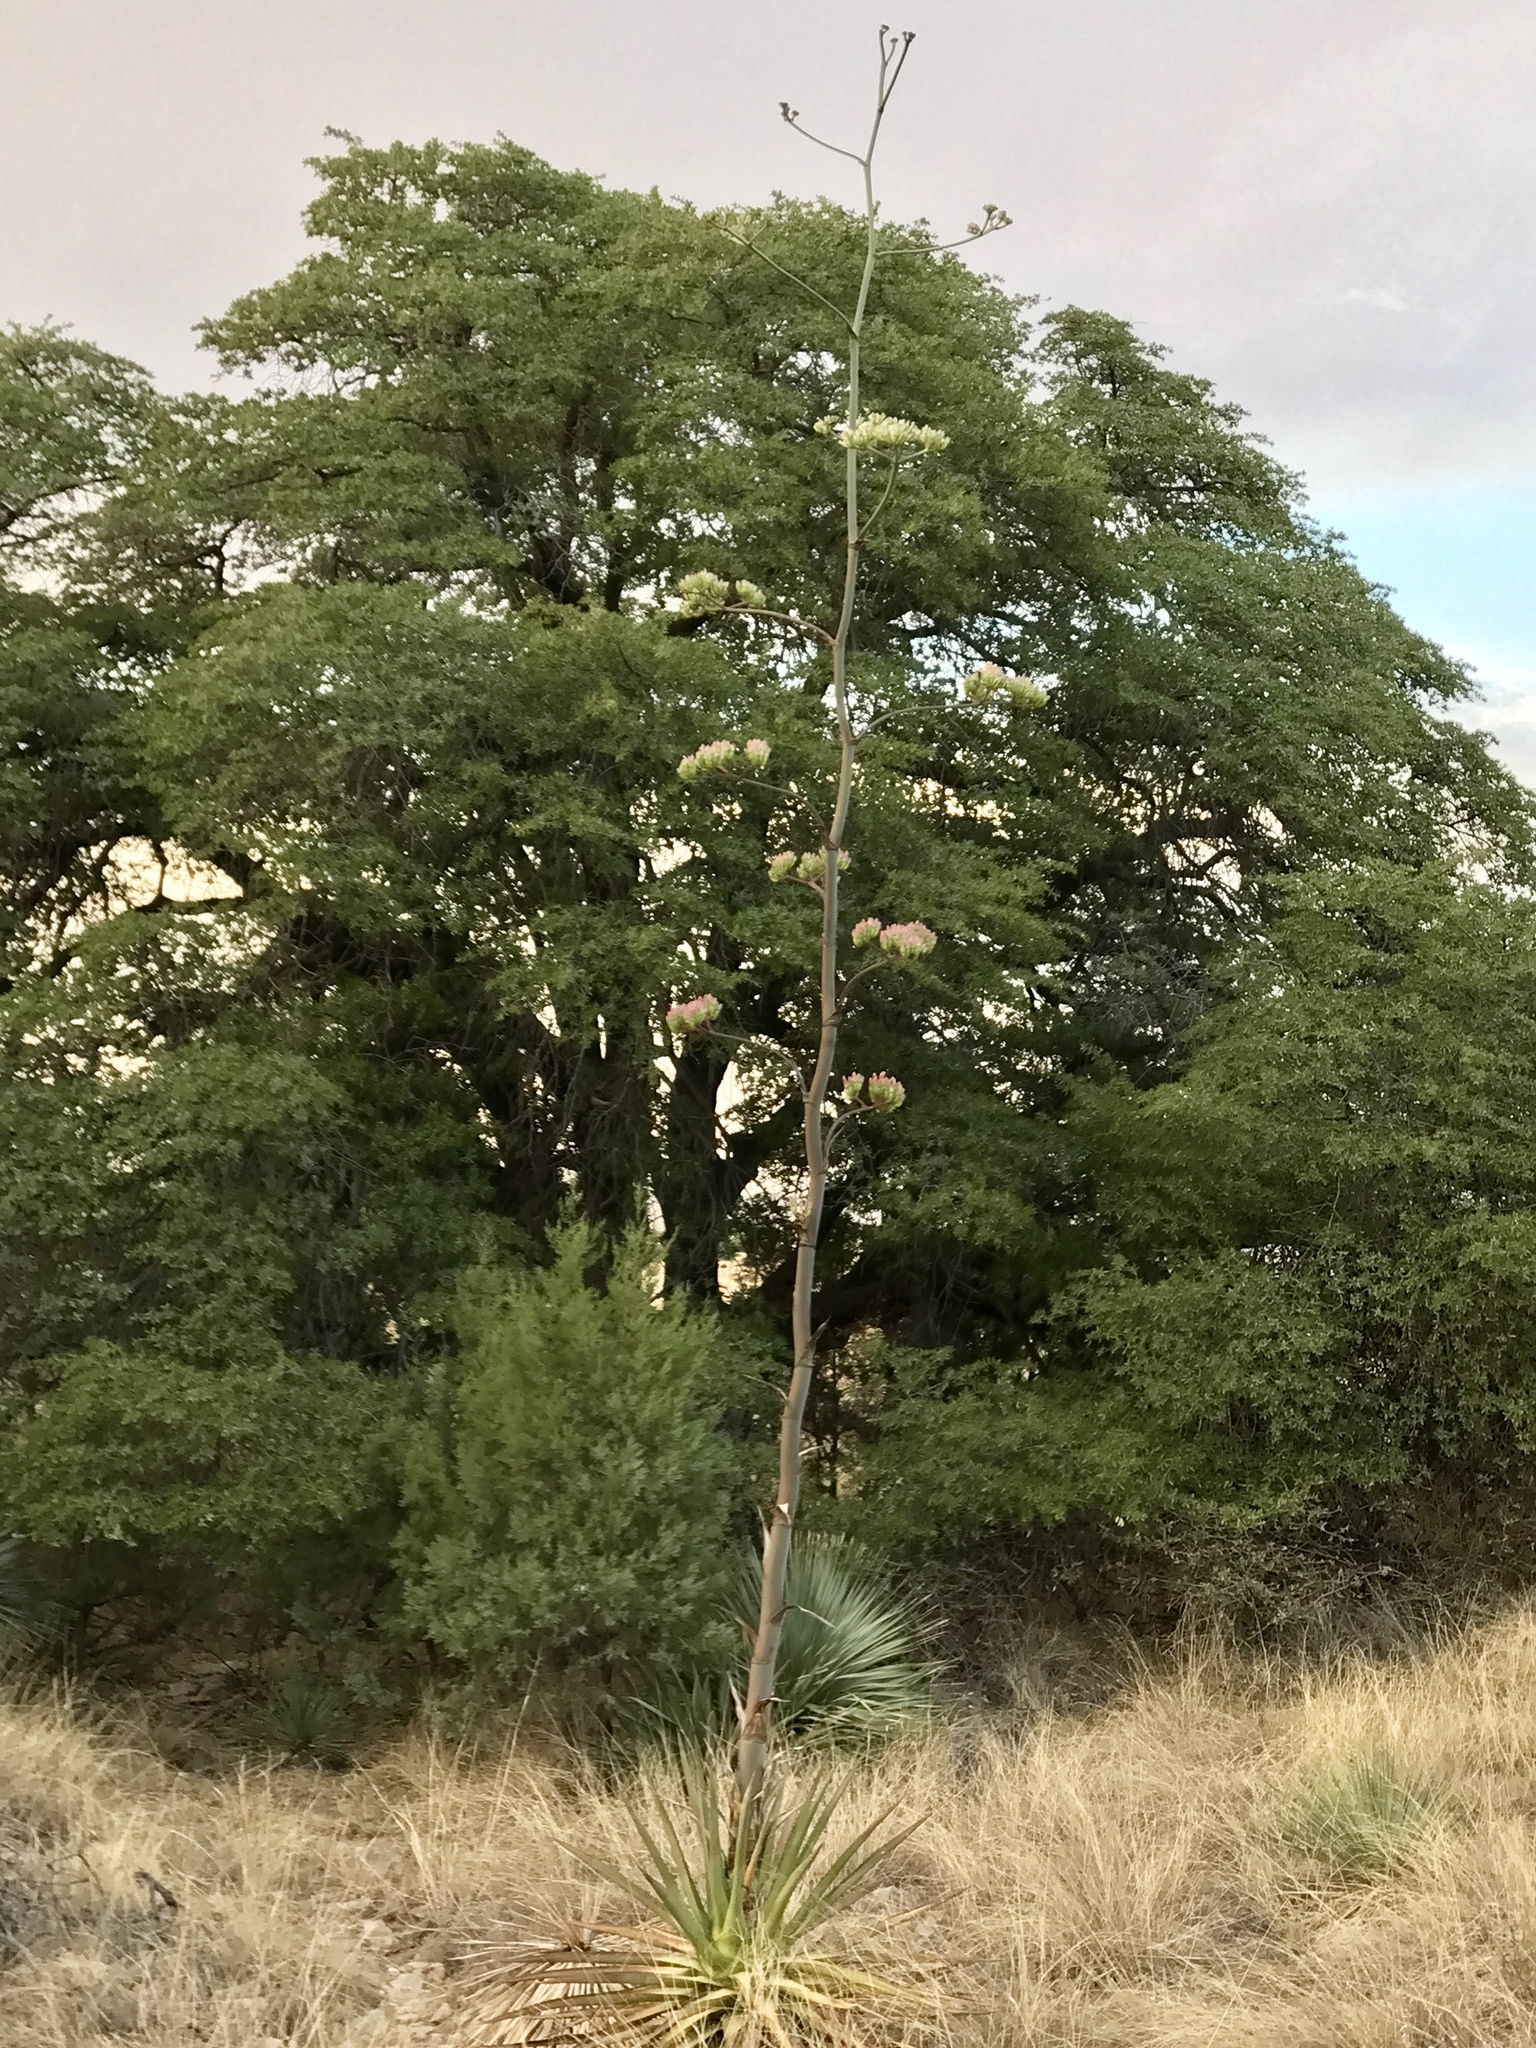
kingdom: Plantae
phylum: Tracheophyta
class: Liliopsida
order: Asparagales
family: Asparagaceae
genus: Agave
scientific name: Agave palmeri
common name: Palmer agave
